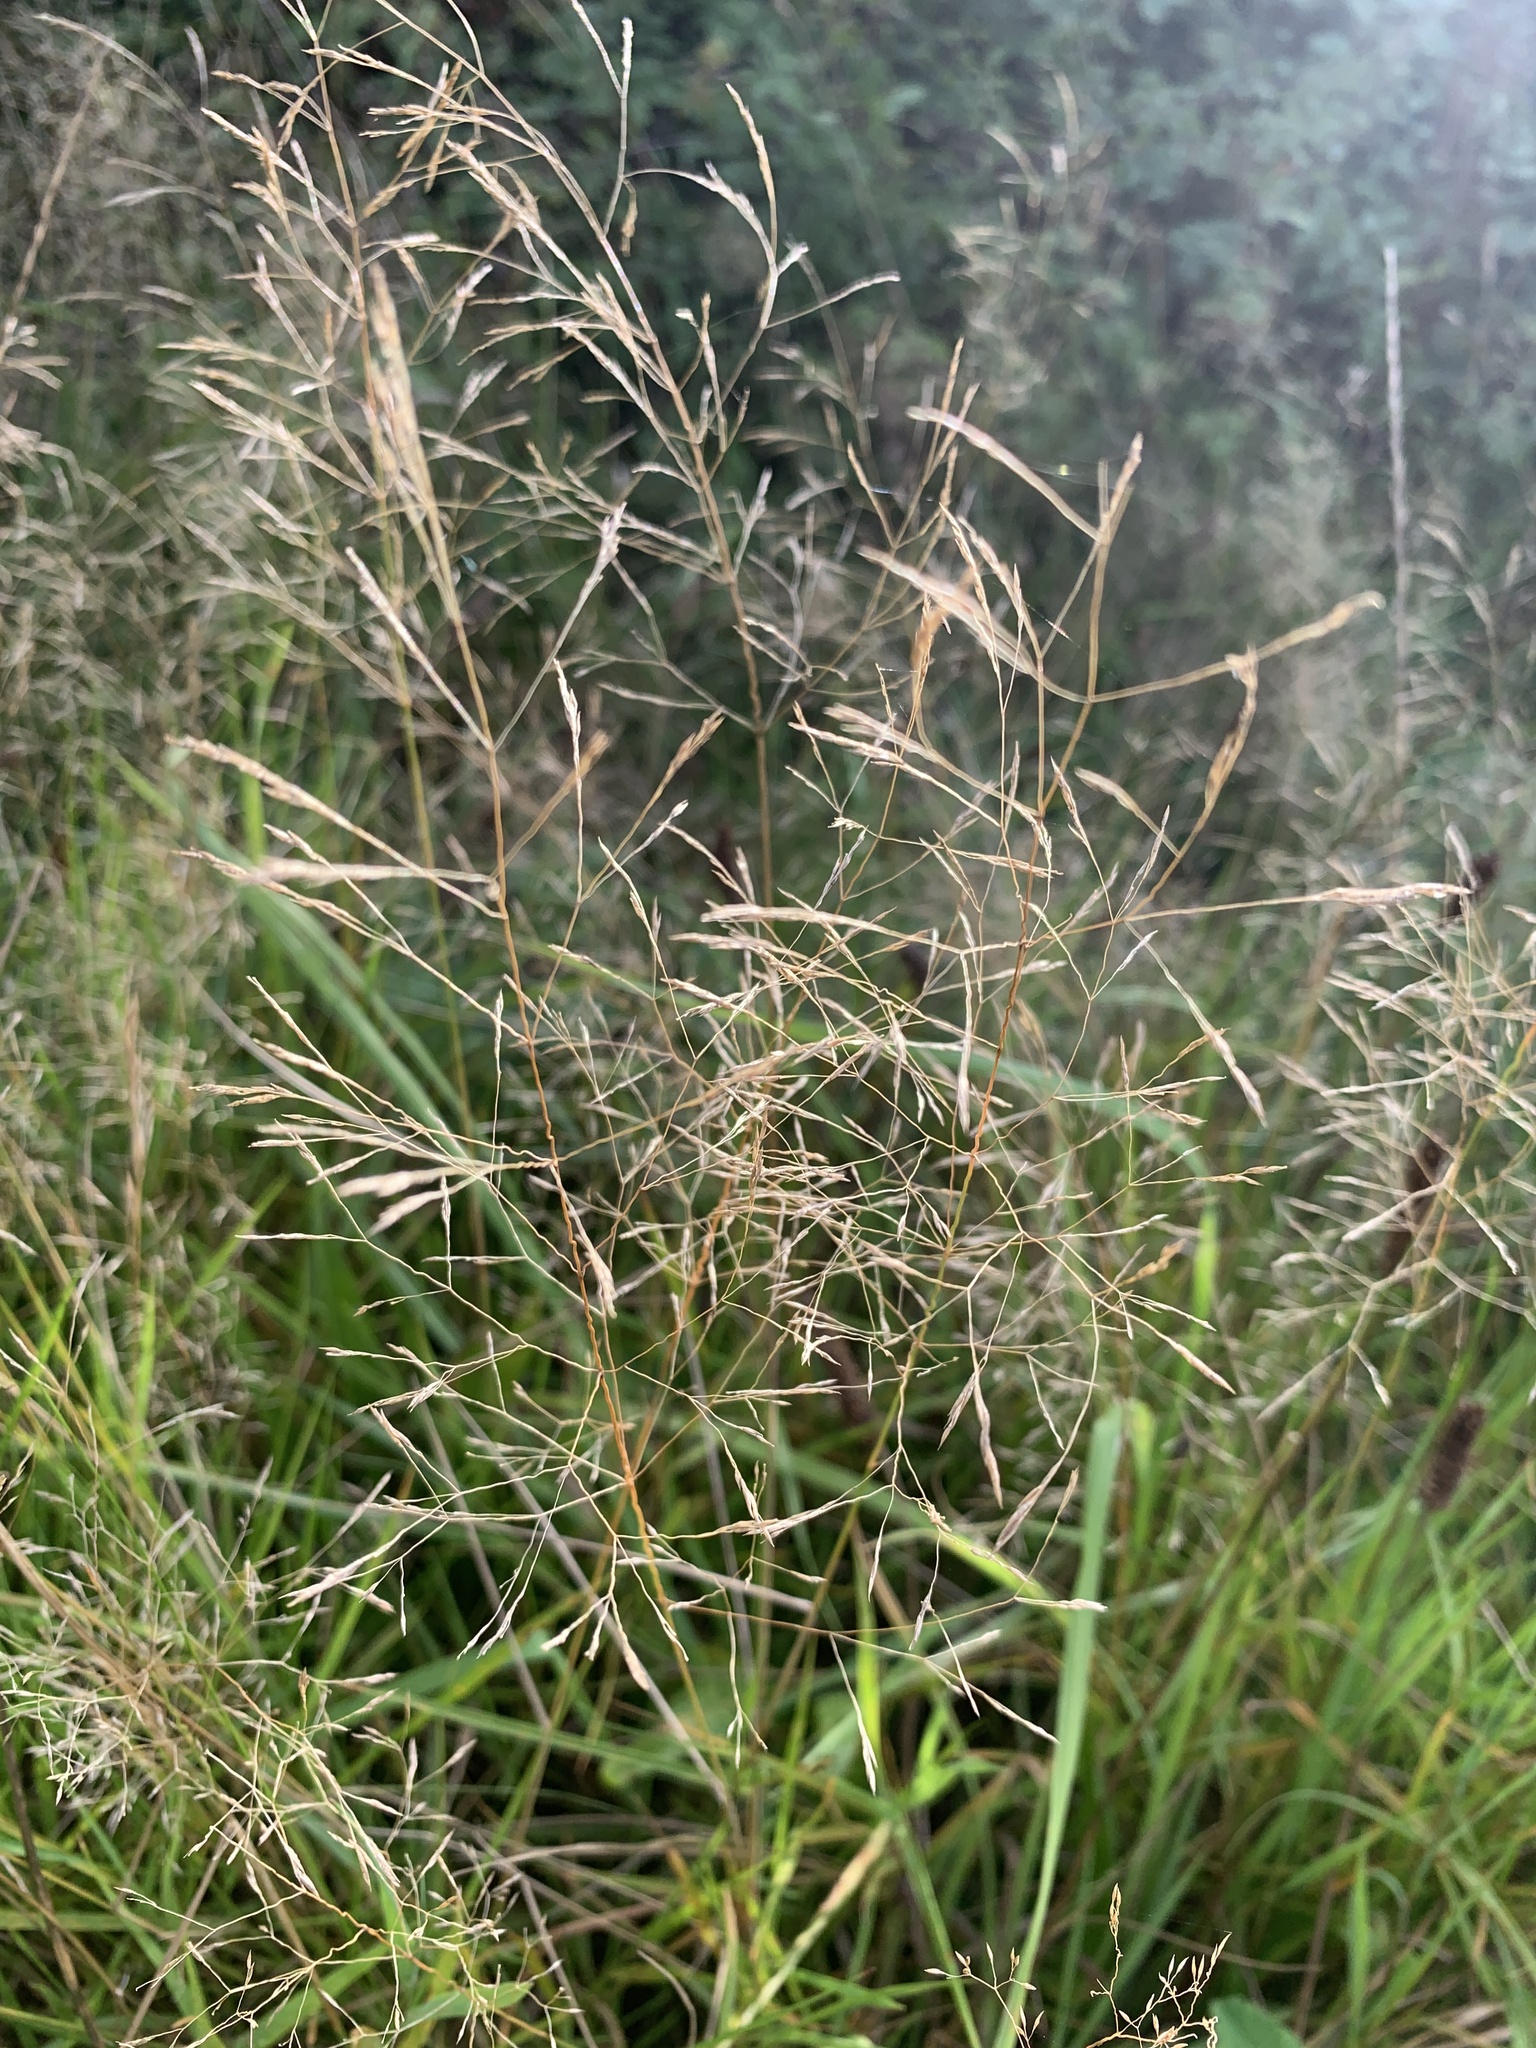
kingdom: Plantae
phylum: Tracheophyta
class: Liliopsida
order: Poales
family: Poaceae
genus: Agrostis
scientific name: Agrostis capillaris
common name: Colonial bentgrass
